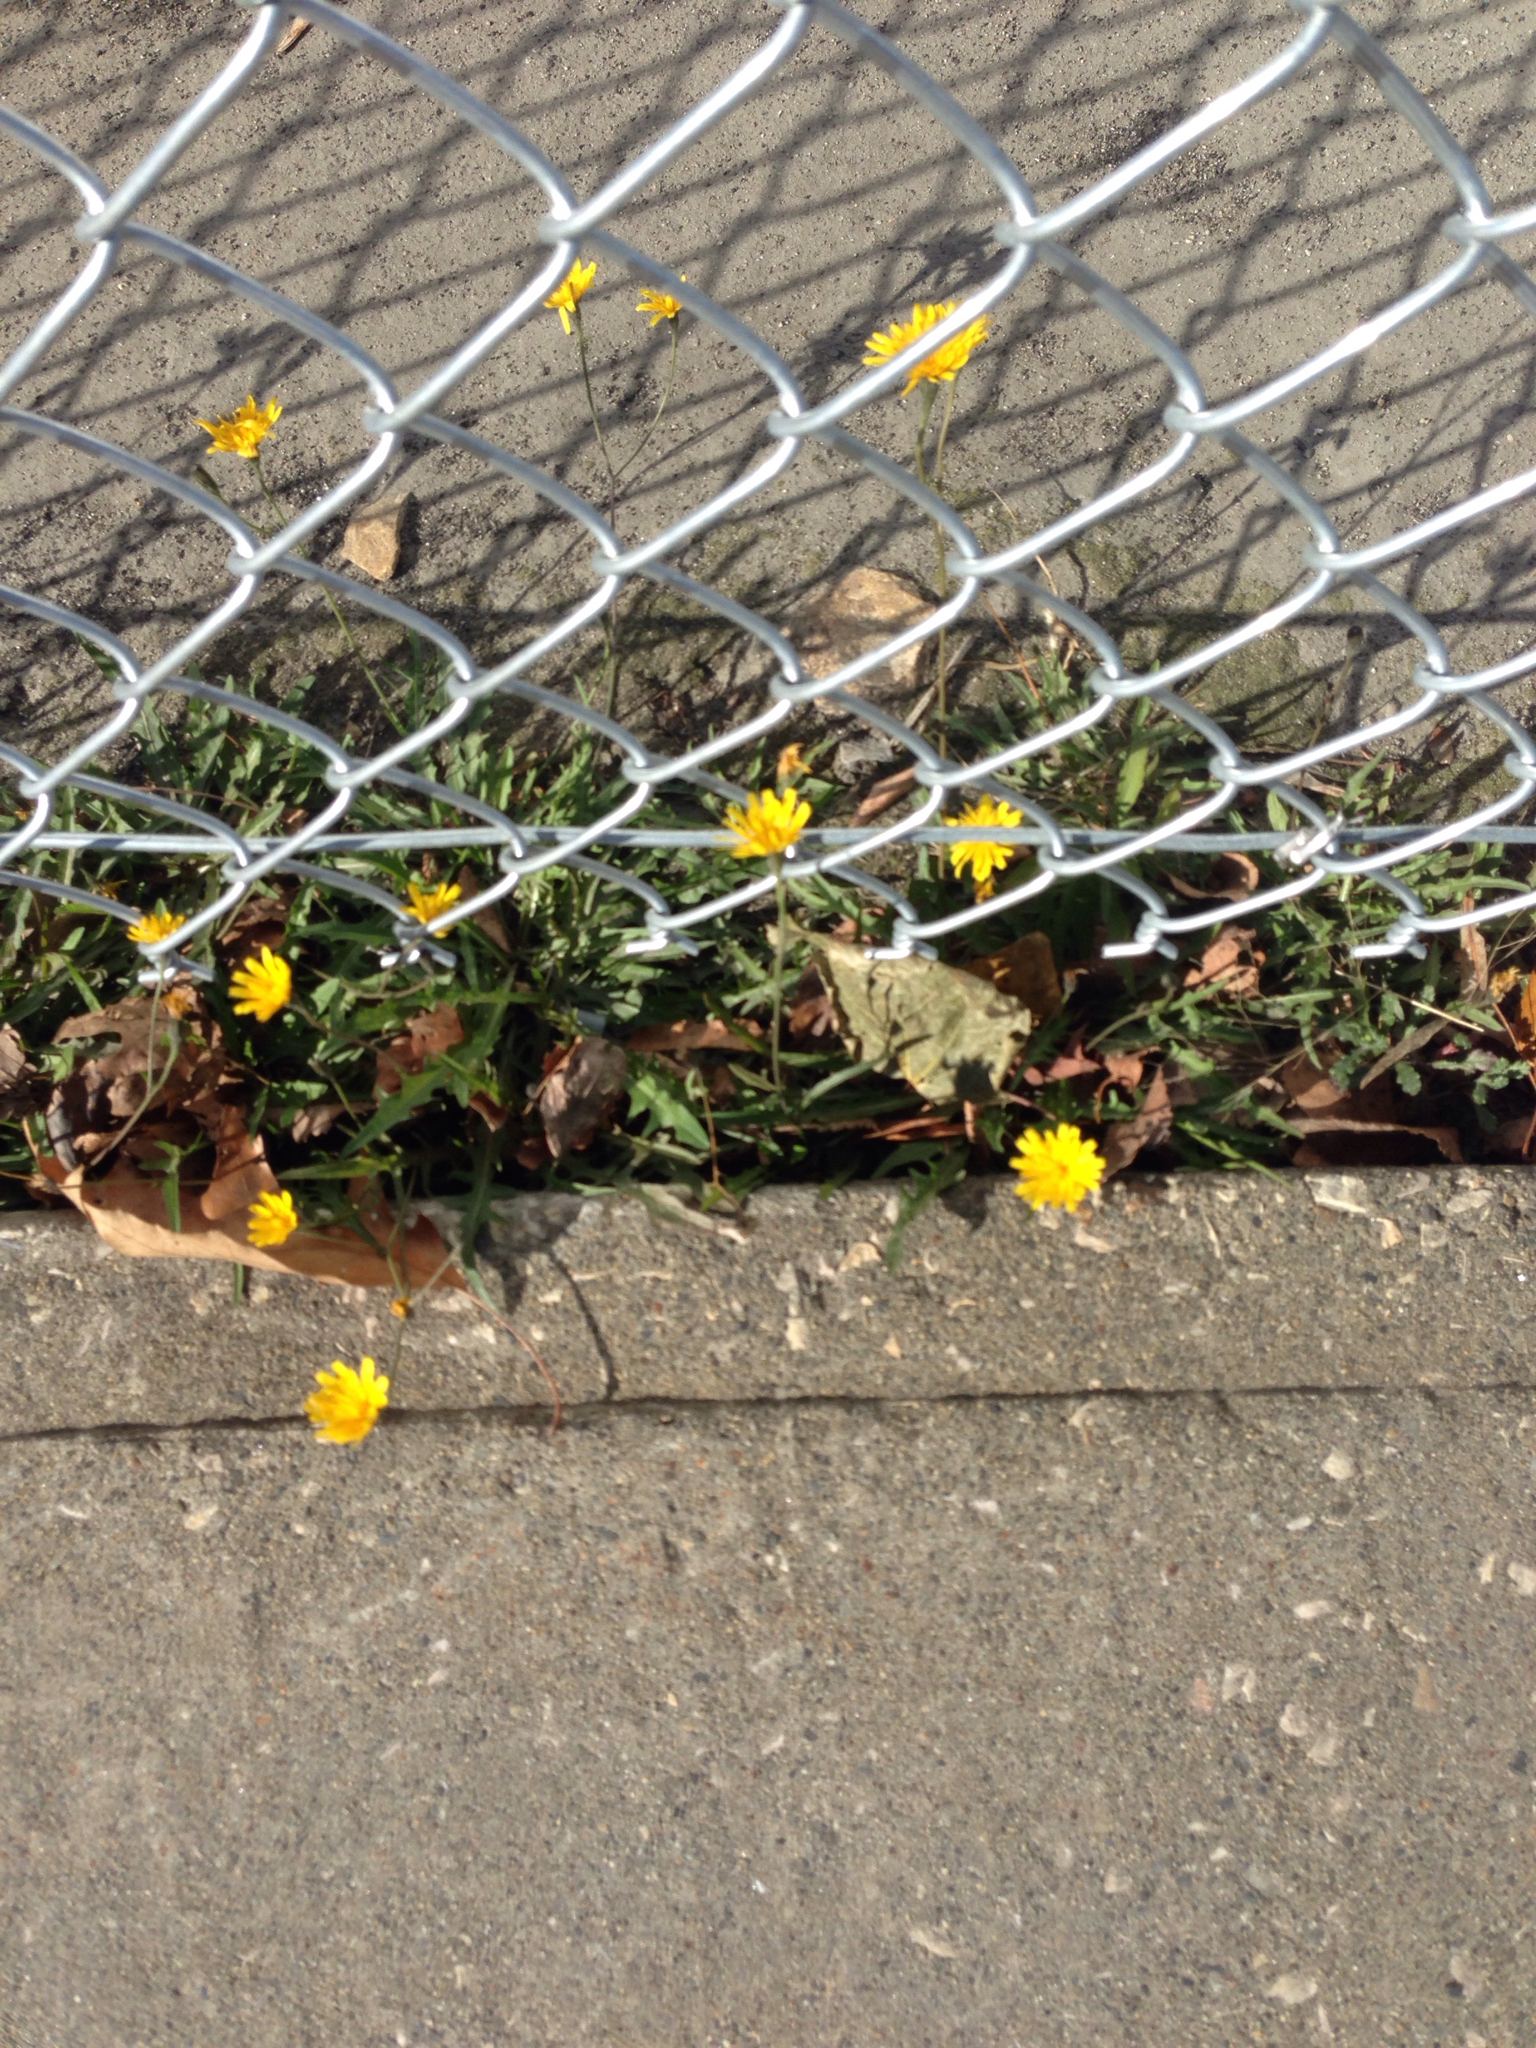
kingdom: Plantae
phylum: Tracheophyta
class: Magnoliopsida
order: Asterales
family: Asteraceae
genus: Scorzoneroides
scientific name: Scorzoneroides autumnalis
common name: Autumn hawkbit
